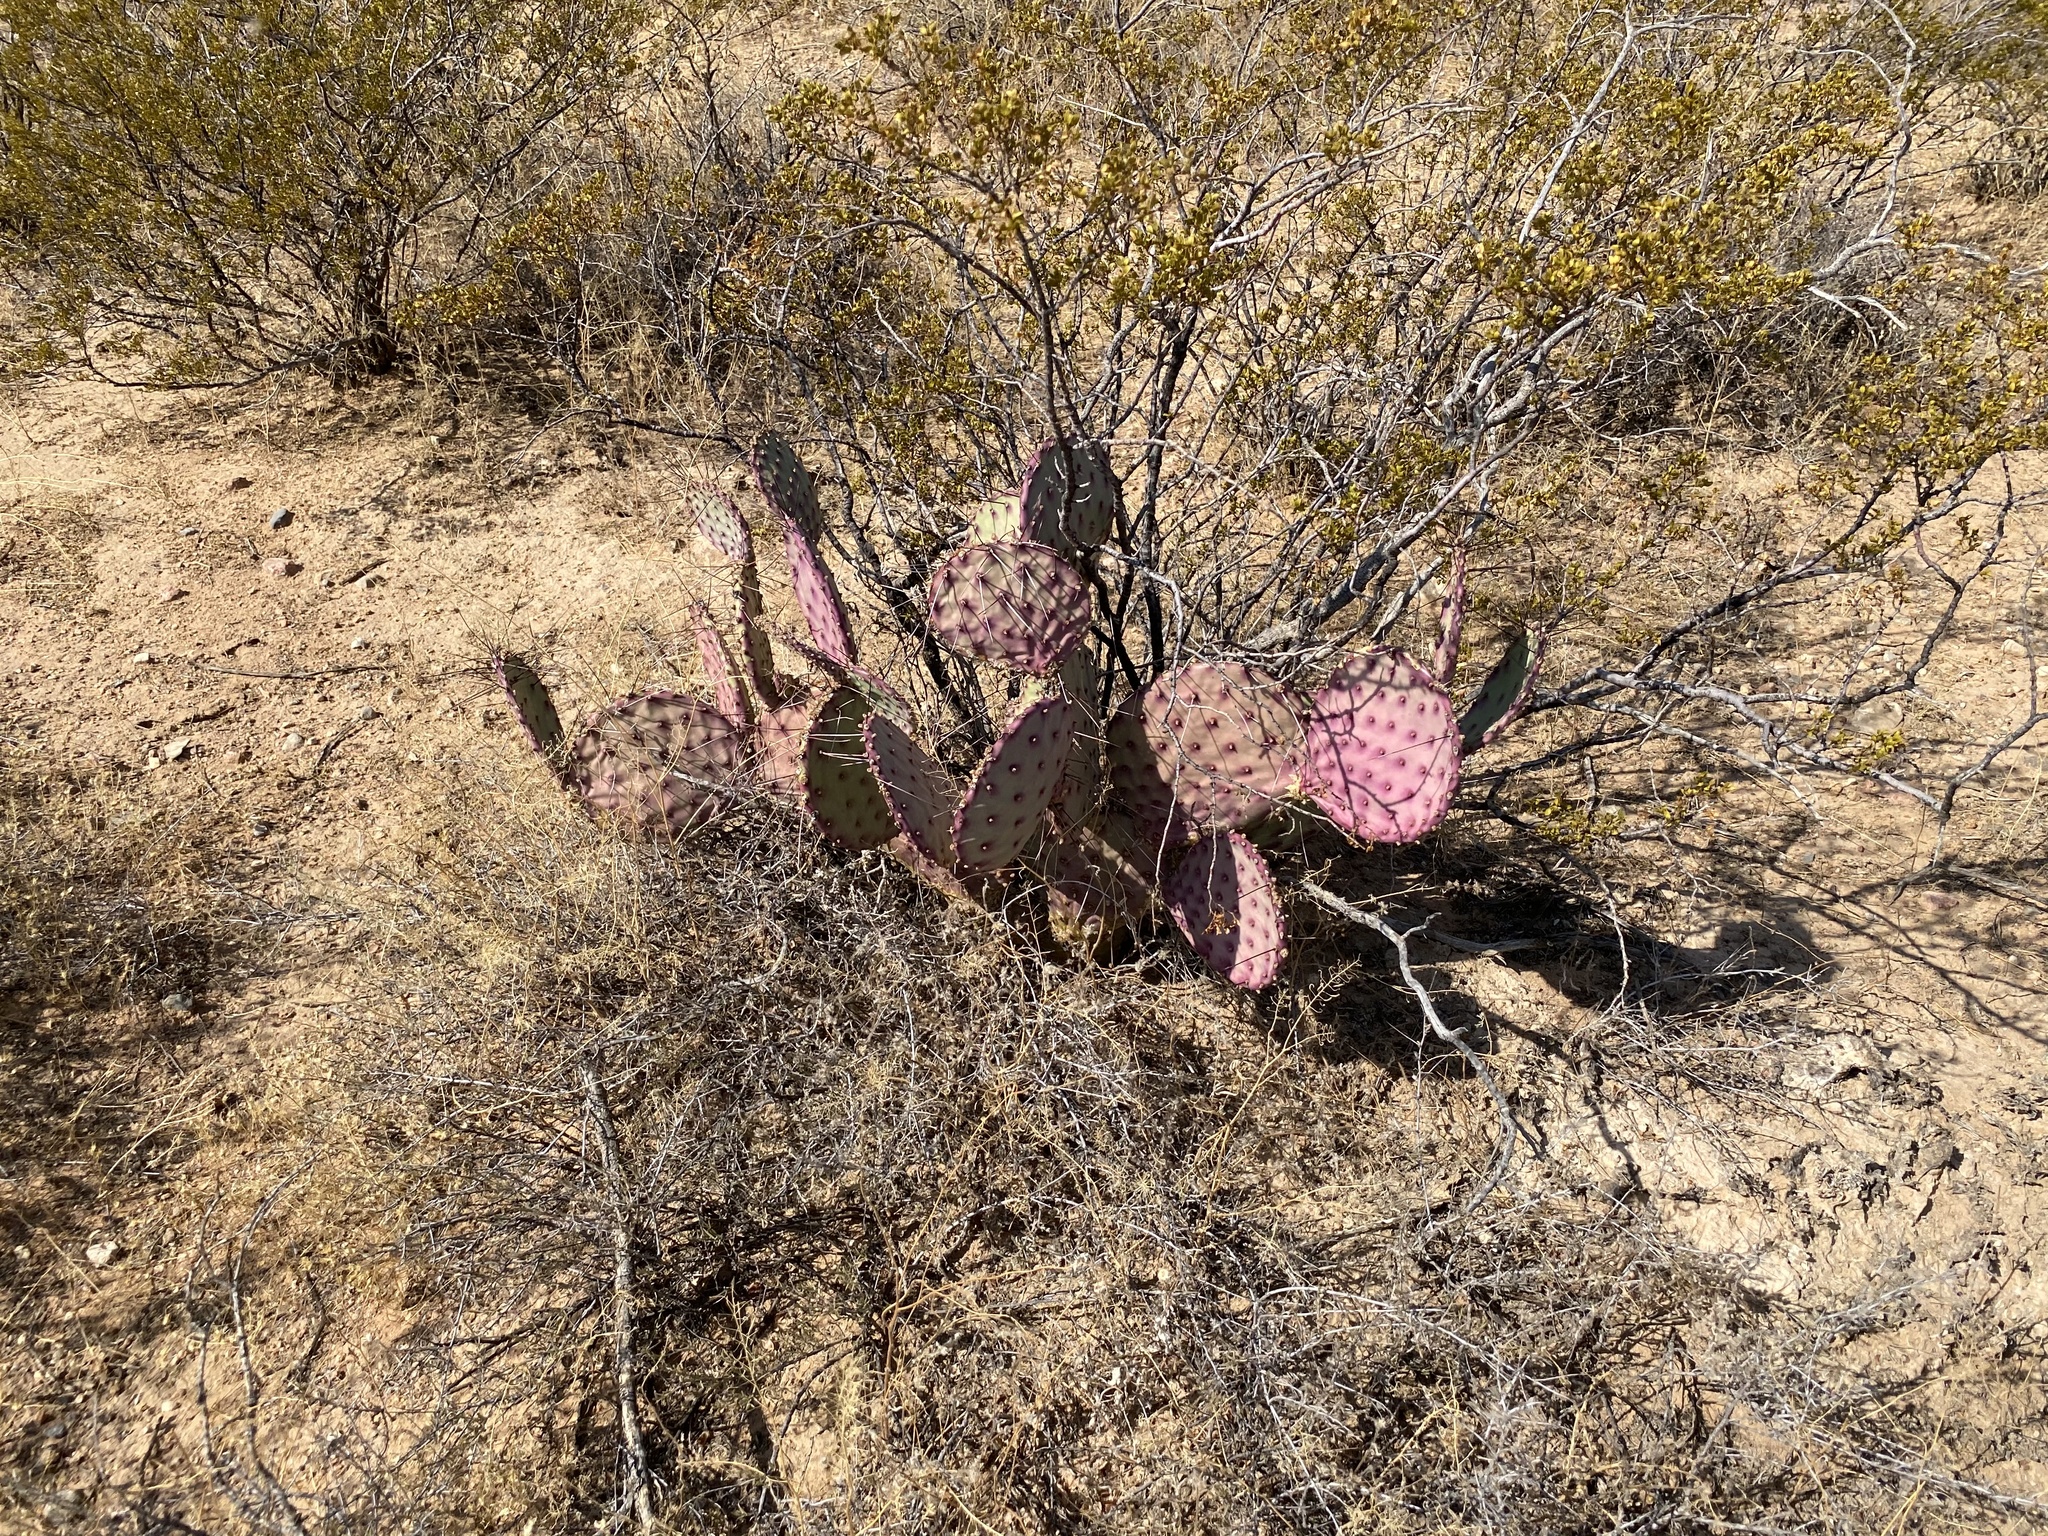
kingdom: Plantae
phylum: Tracheophyta
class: Magnoliopsida
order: Caryophyllales
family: Cactaceae
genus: Opuntia
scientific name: Opuntia macrocentra
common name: Purple prickly-pear
